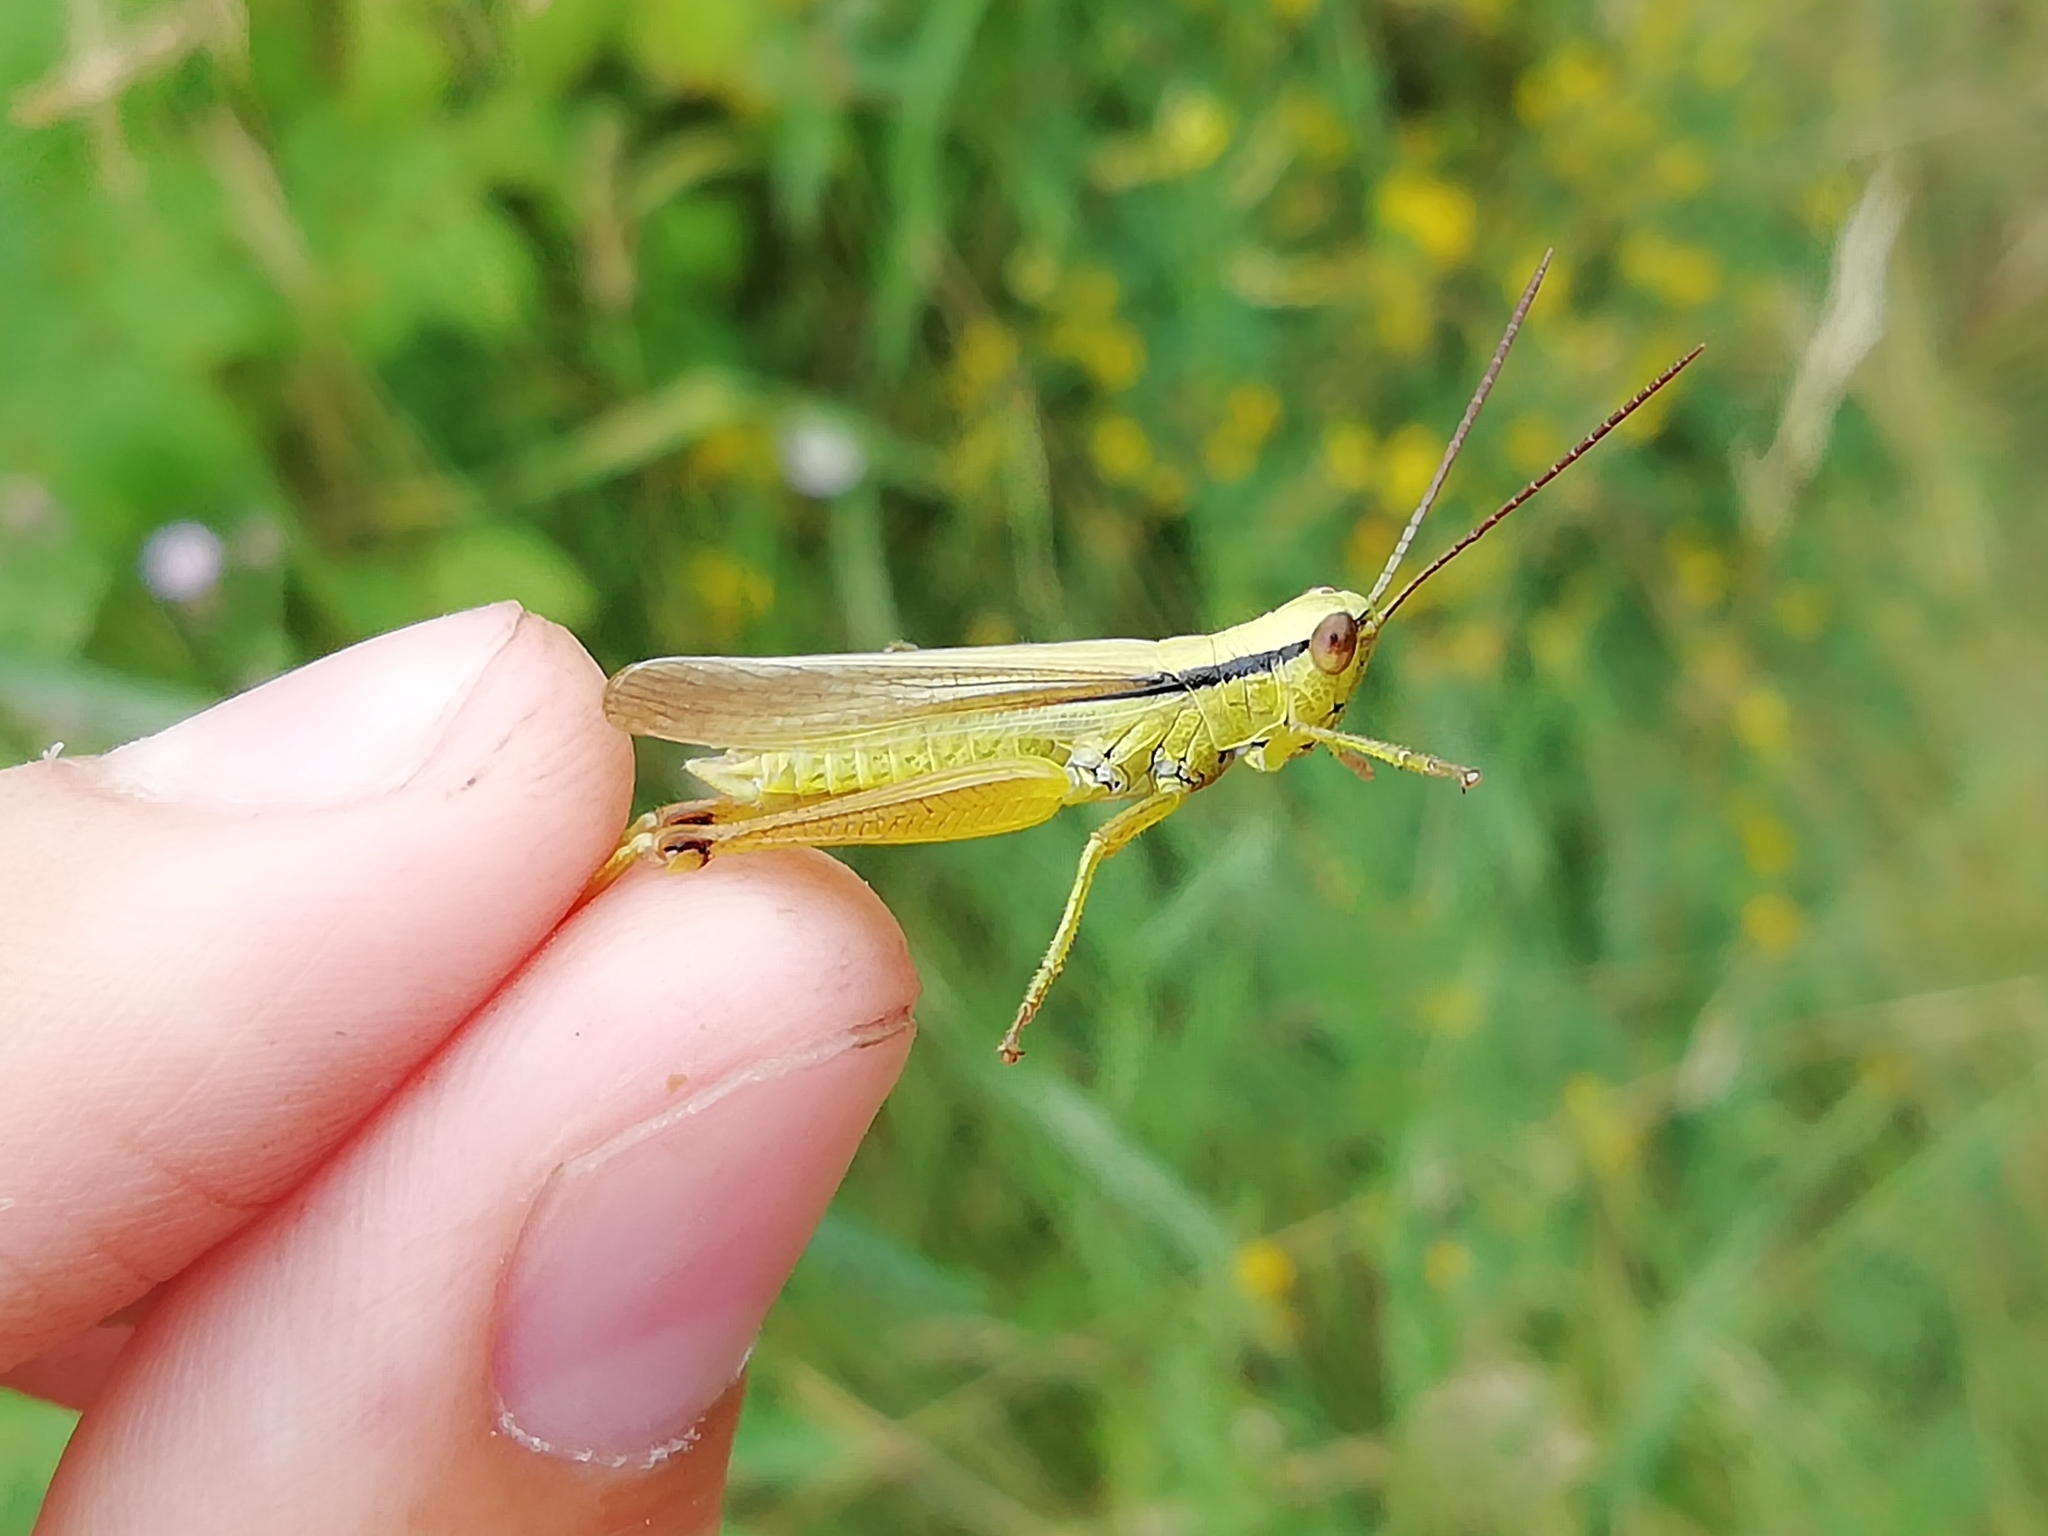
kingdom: Animalia
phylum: Arthropoda
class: Insecta
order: Orthoptera
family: Acrididae
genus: Mecostethus
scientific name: Mecostethus parapleurus
